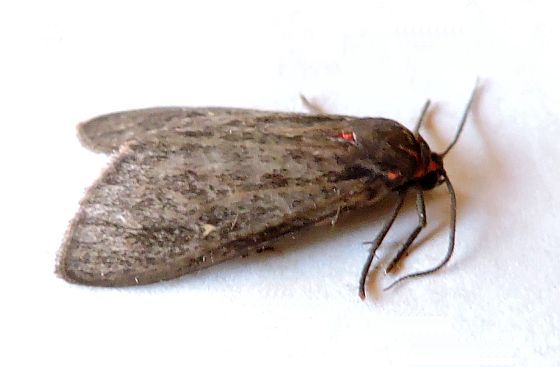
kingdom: Animalia
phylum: Arthropoda
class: Insecta
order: Lepidoptera
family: Erebidae
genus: Euchaetes
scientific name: Euchaetes zella
